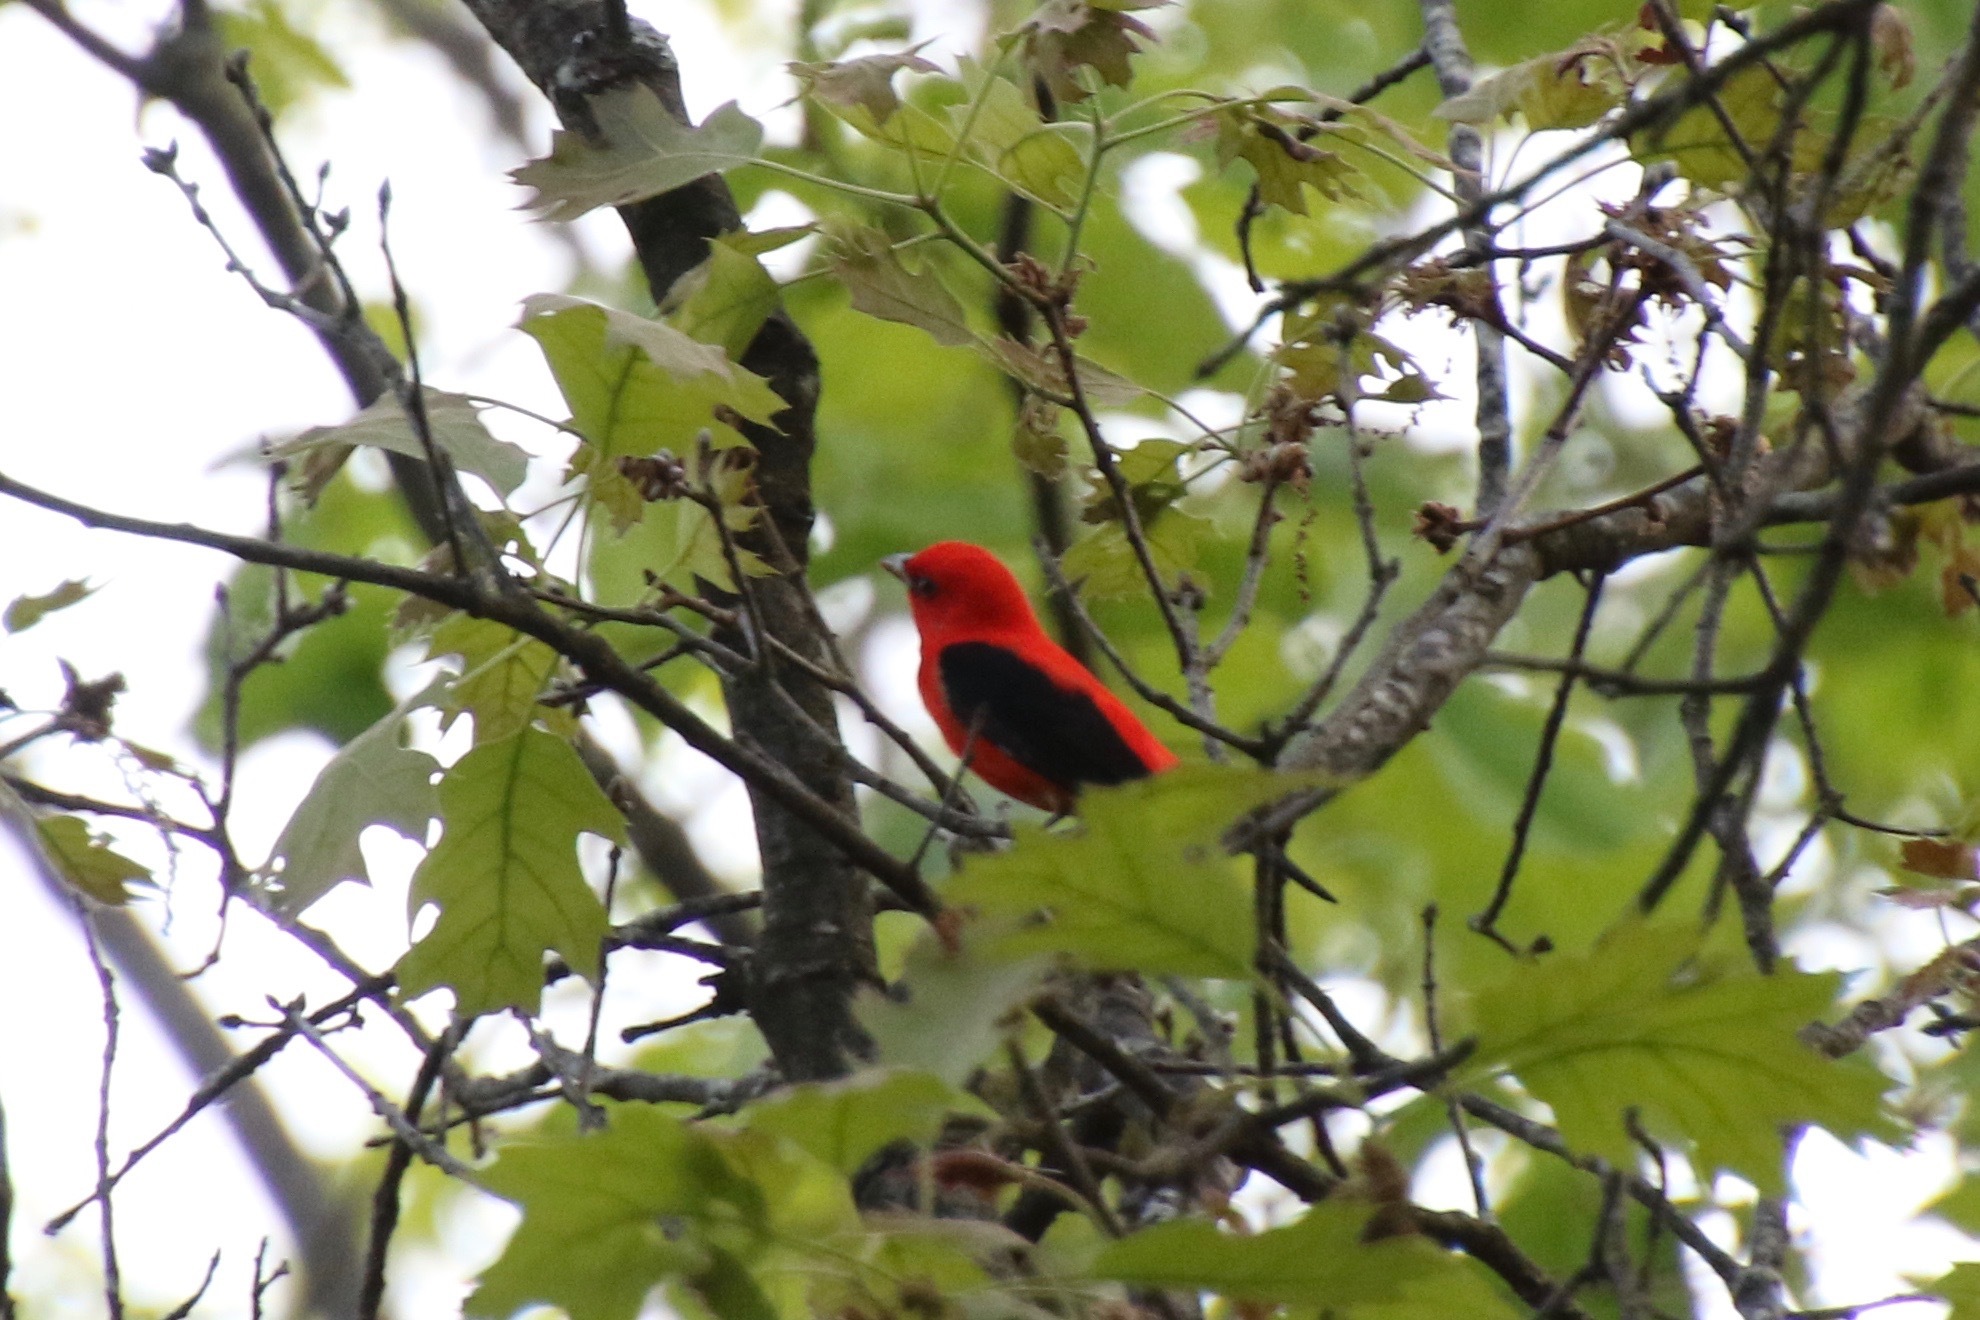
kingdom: Animalia
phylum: Chordata
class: Aves
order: Passeriformes
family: Cardinalidae
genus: Piranga
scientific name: Piranga olivacea
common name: Scarlet tanager
